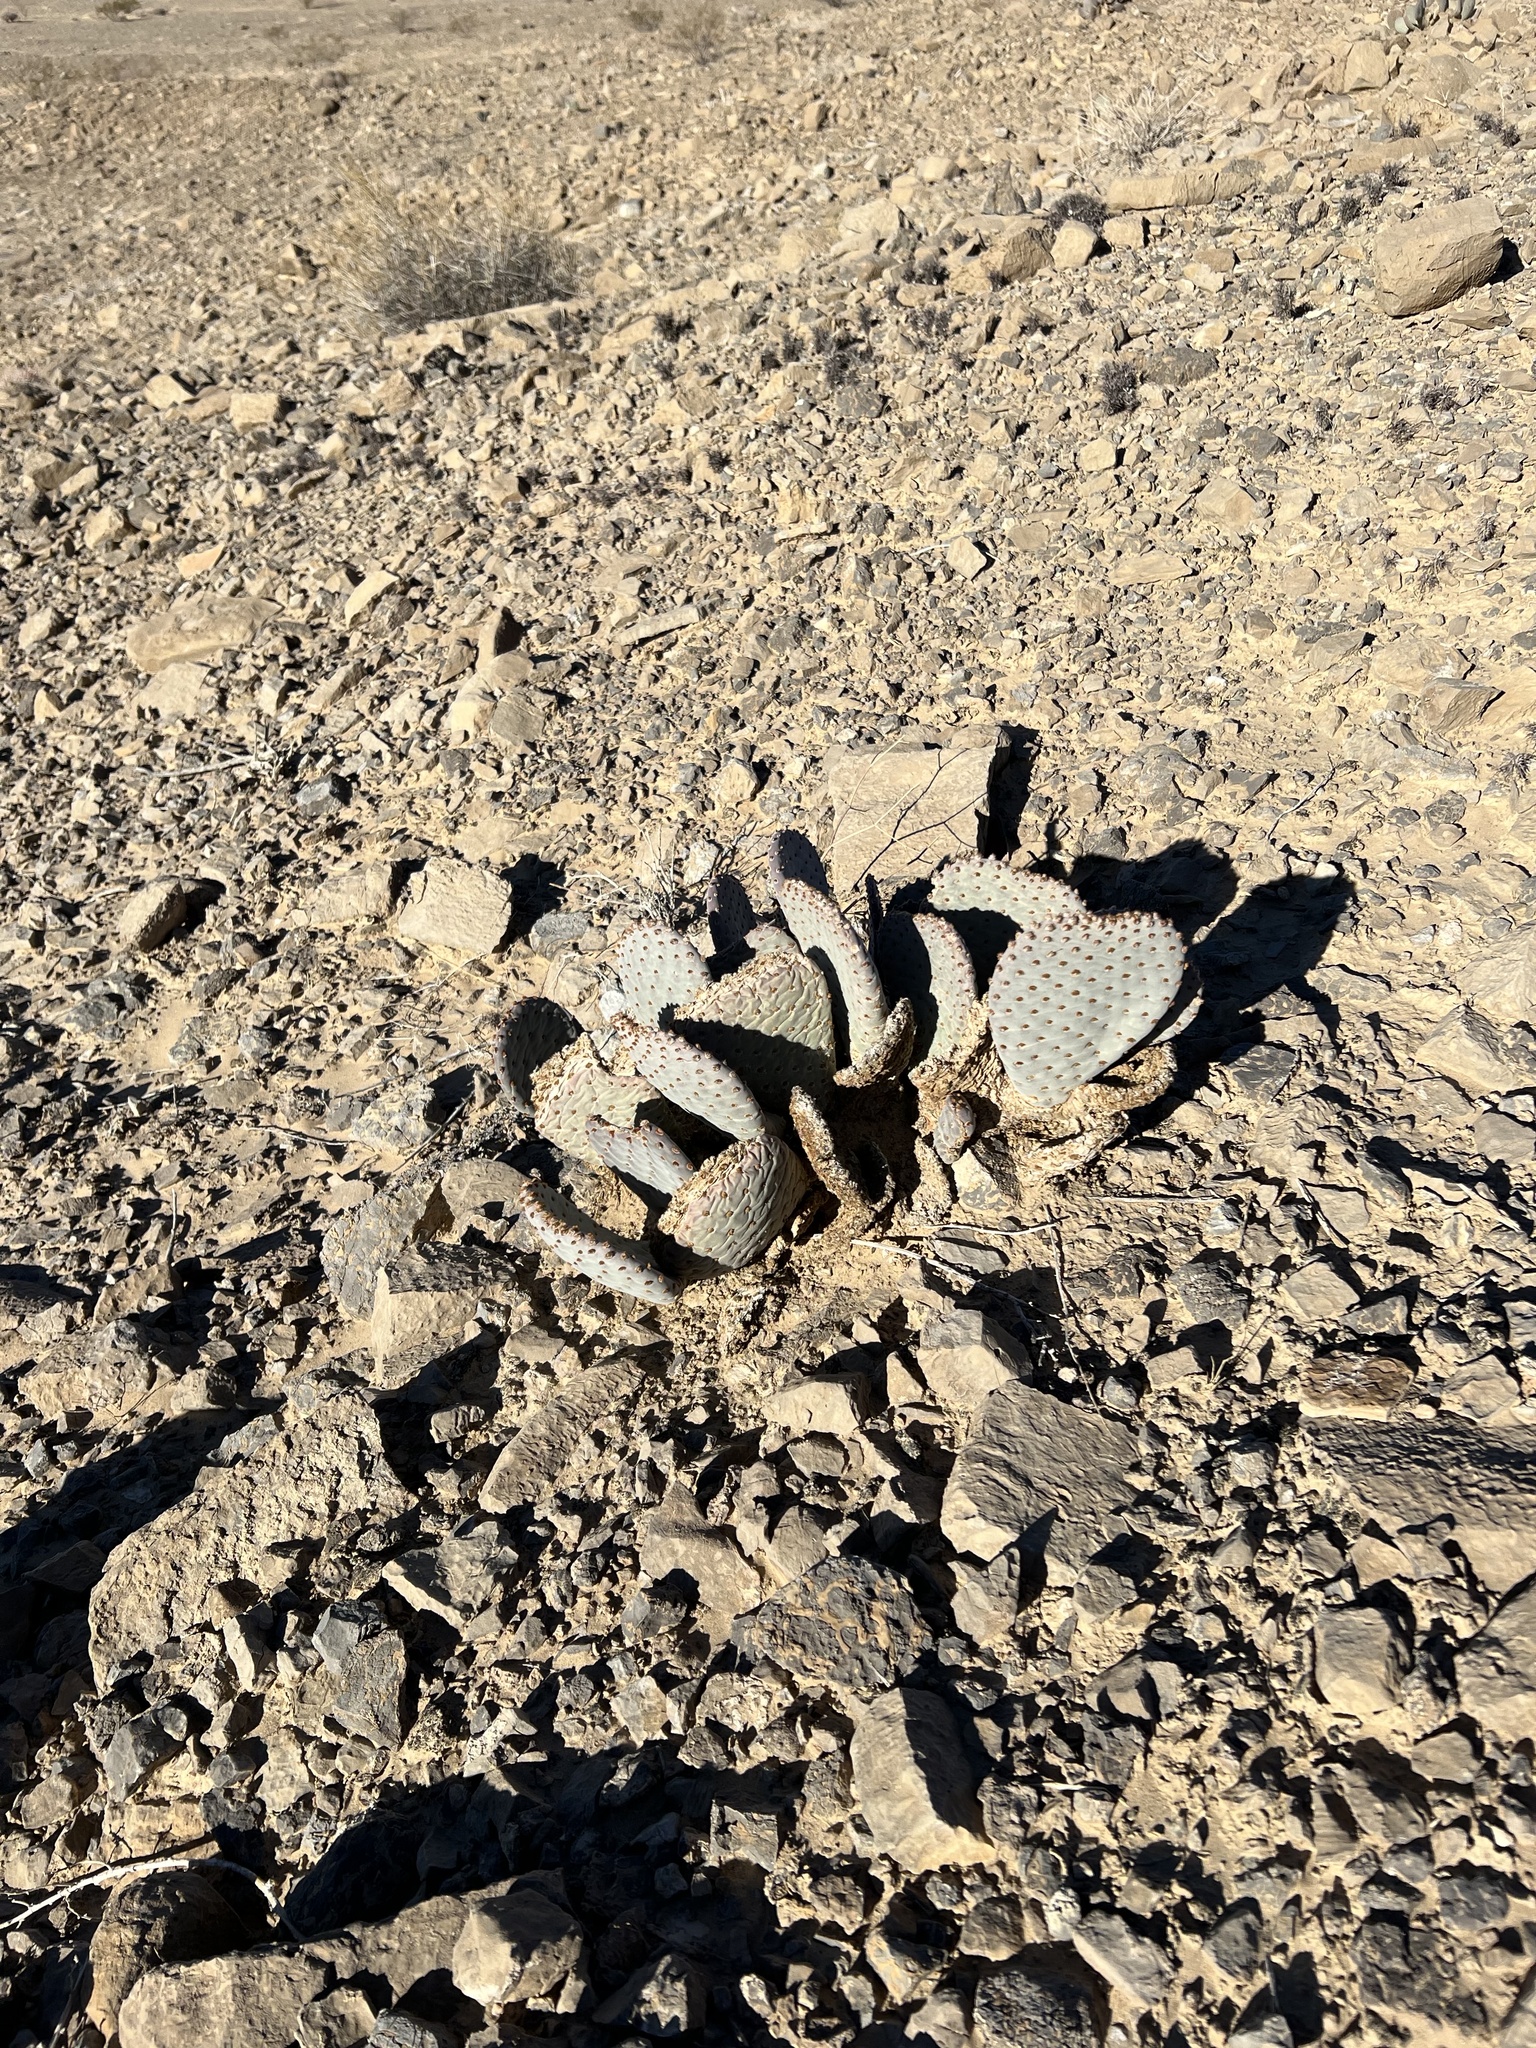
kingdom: Plantae
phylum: Tracheophyta
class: Magnoliopsida
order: Caryophyllales
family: Cactaceae
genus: Opuntia
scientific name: Opuntia basilaris
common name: Beavertail prickly-pear
